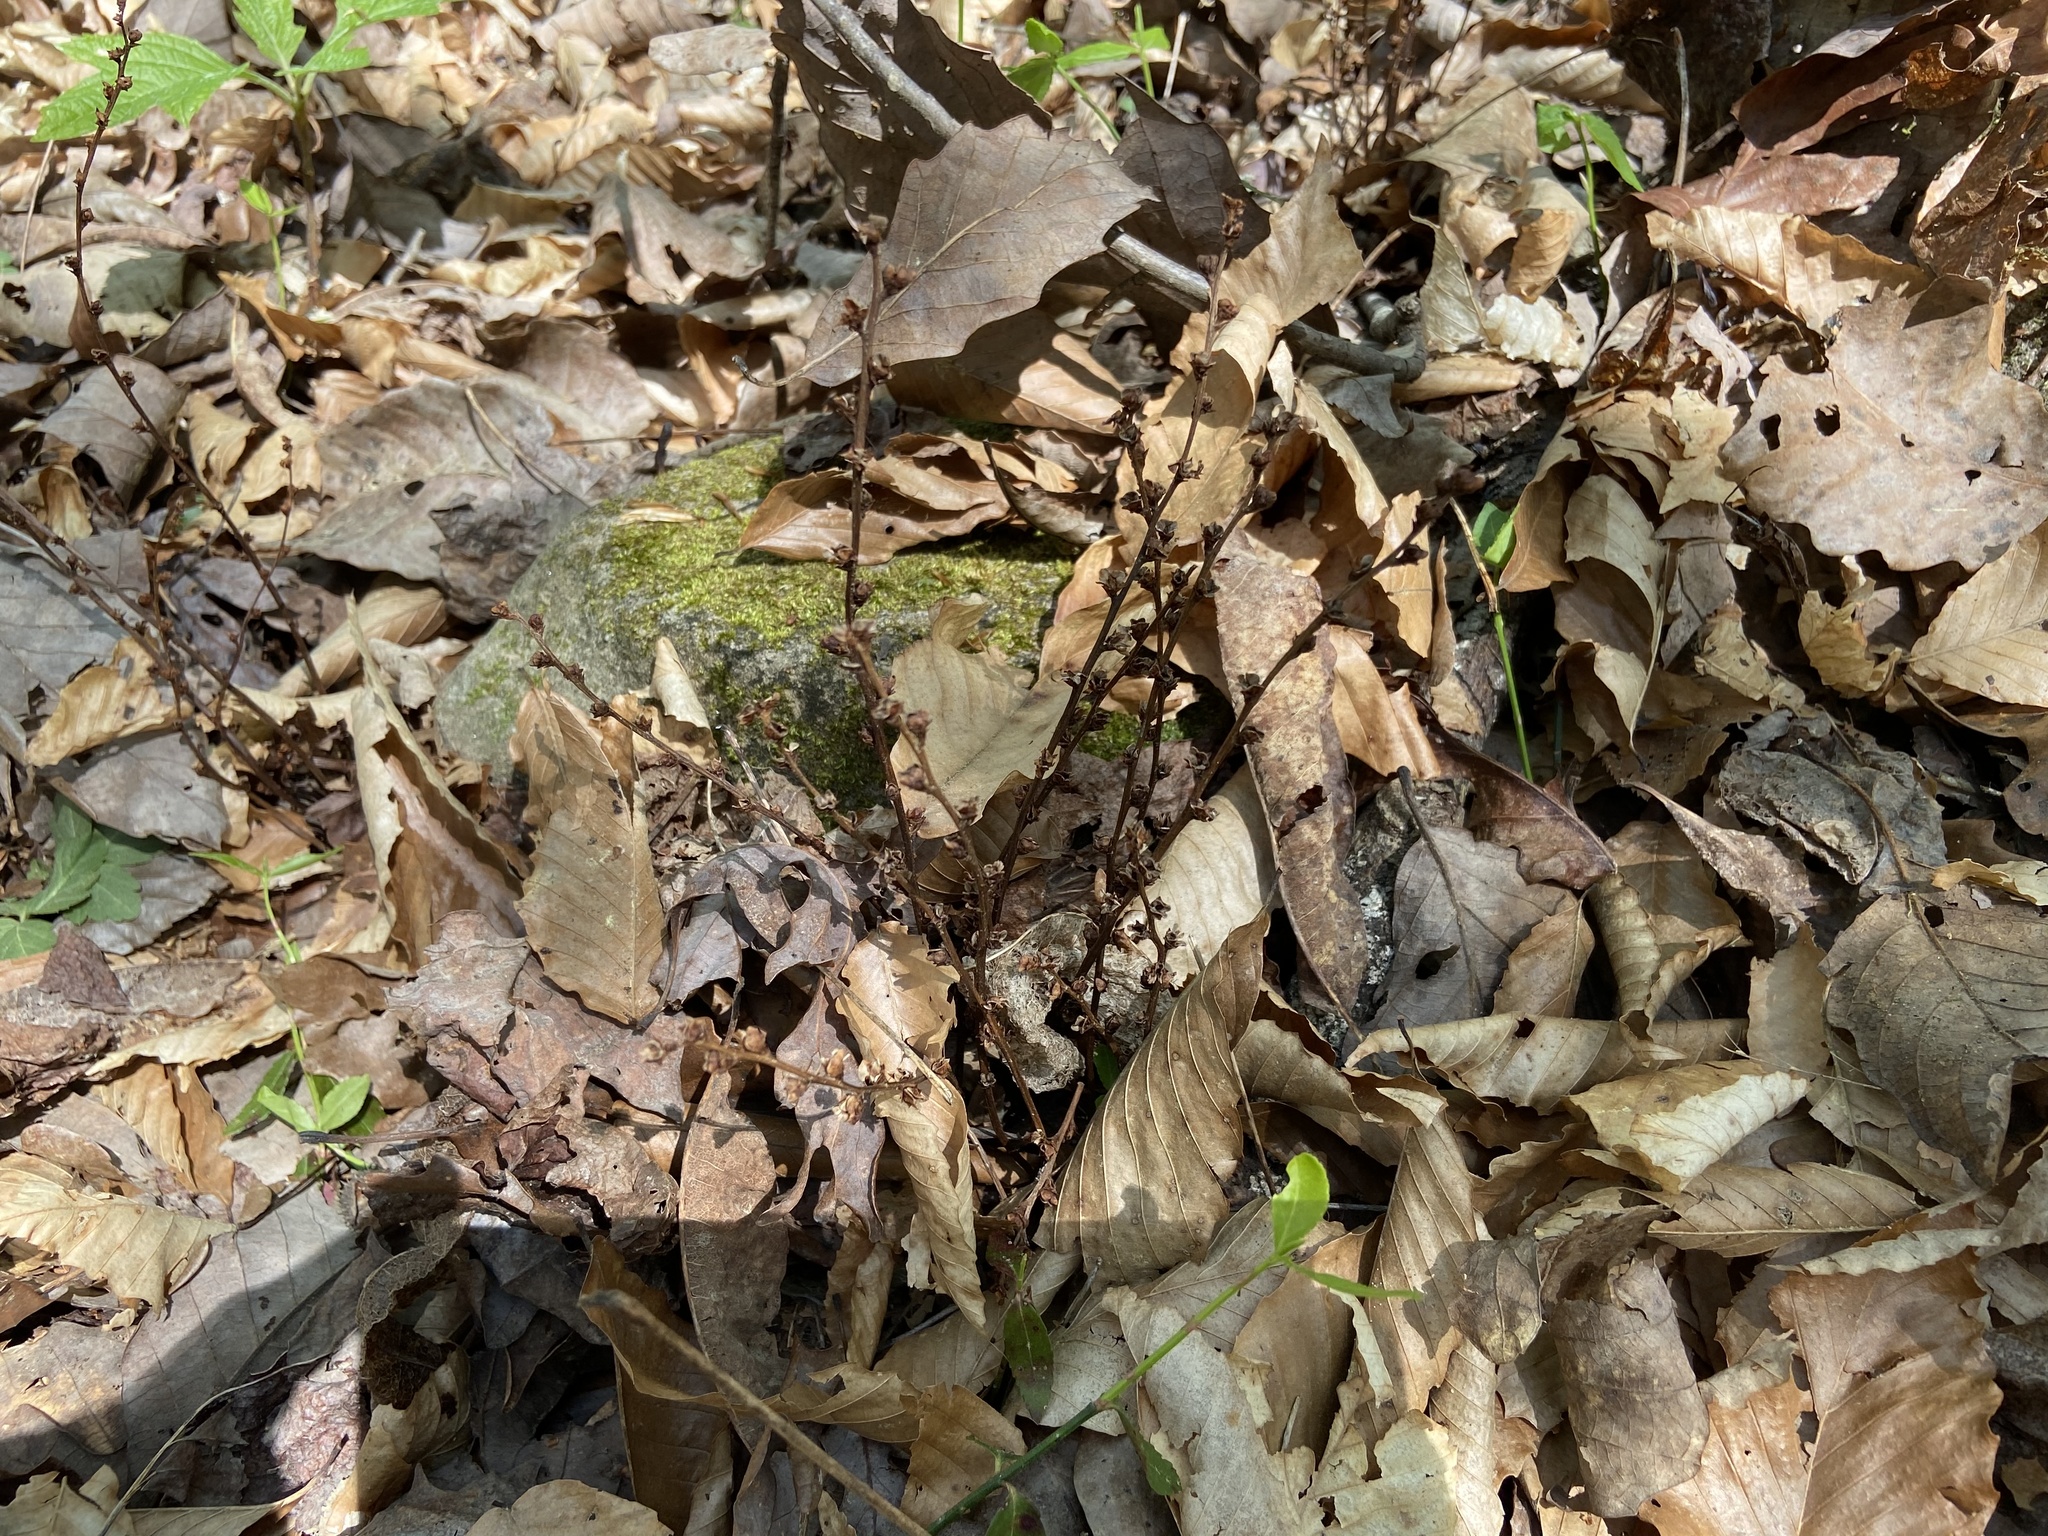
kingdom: Plantae
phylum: Tracheophyta
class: Magnoliopsida
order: Lamiales
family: Orobanchaceae
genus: Epifagus
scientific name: Epifagus virginiana
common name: Beechdrops
